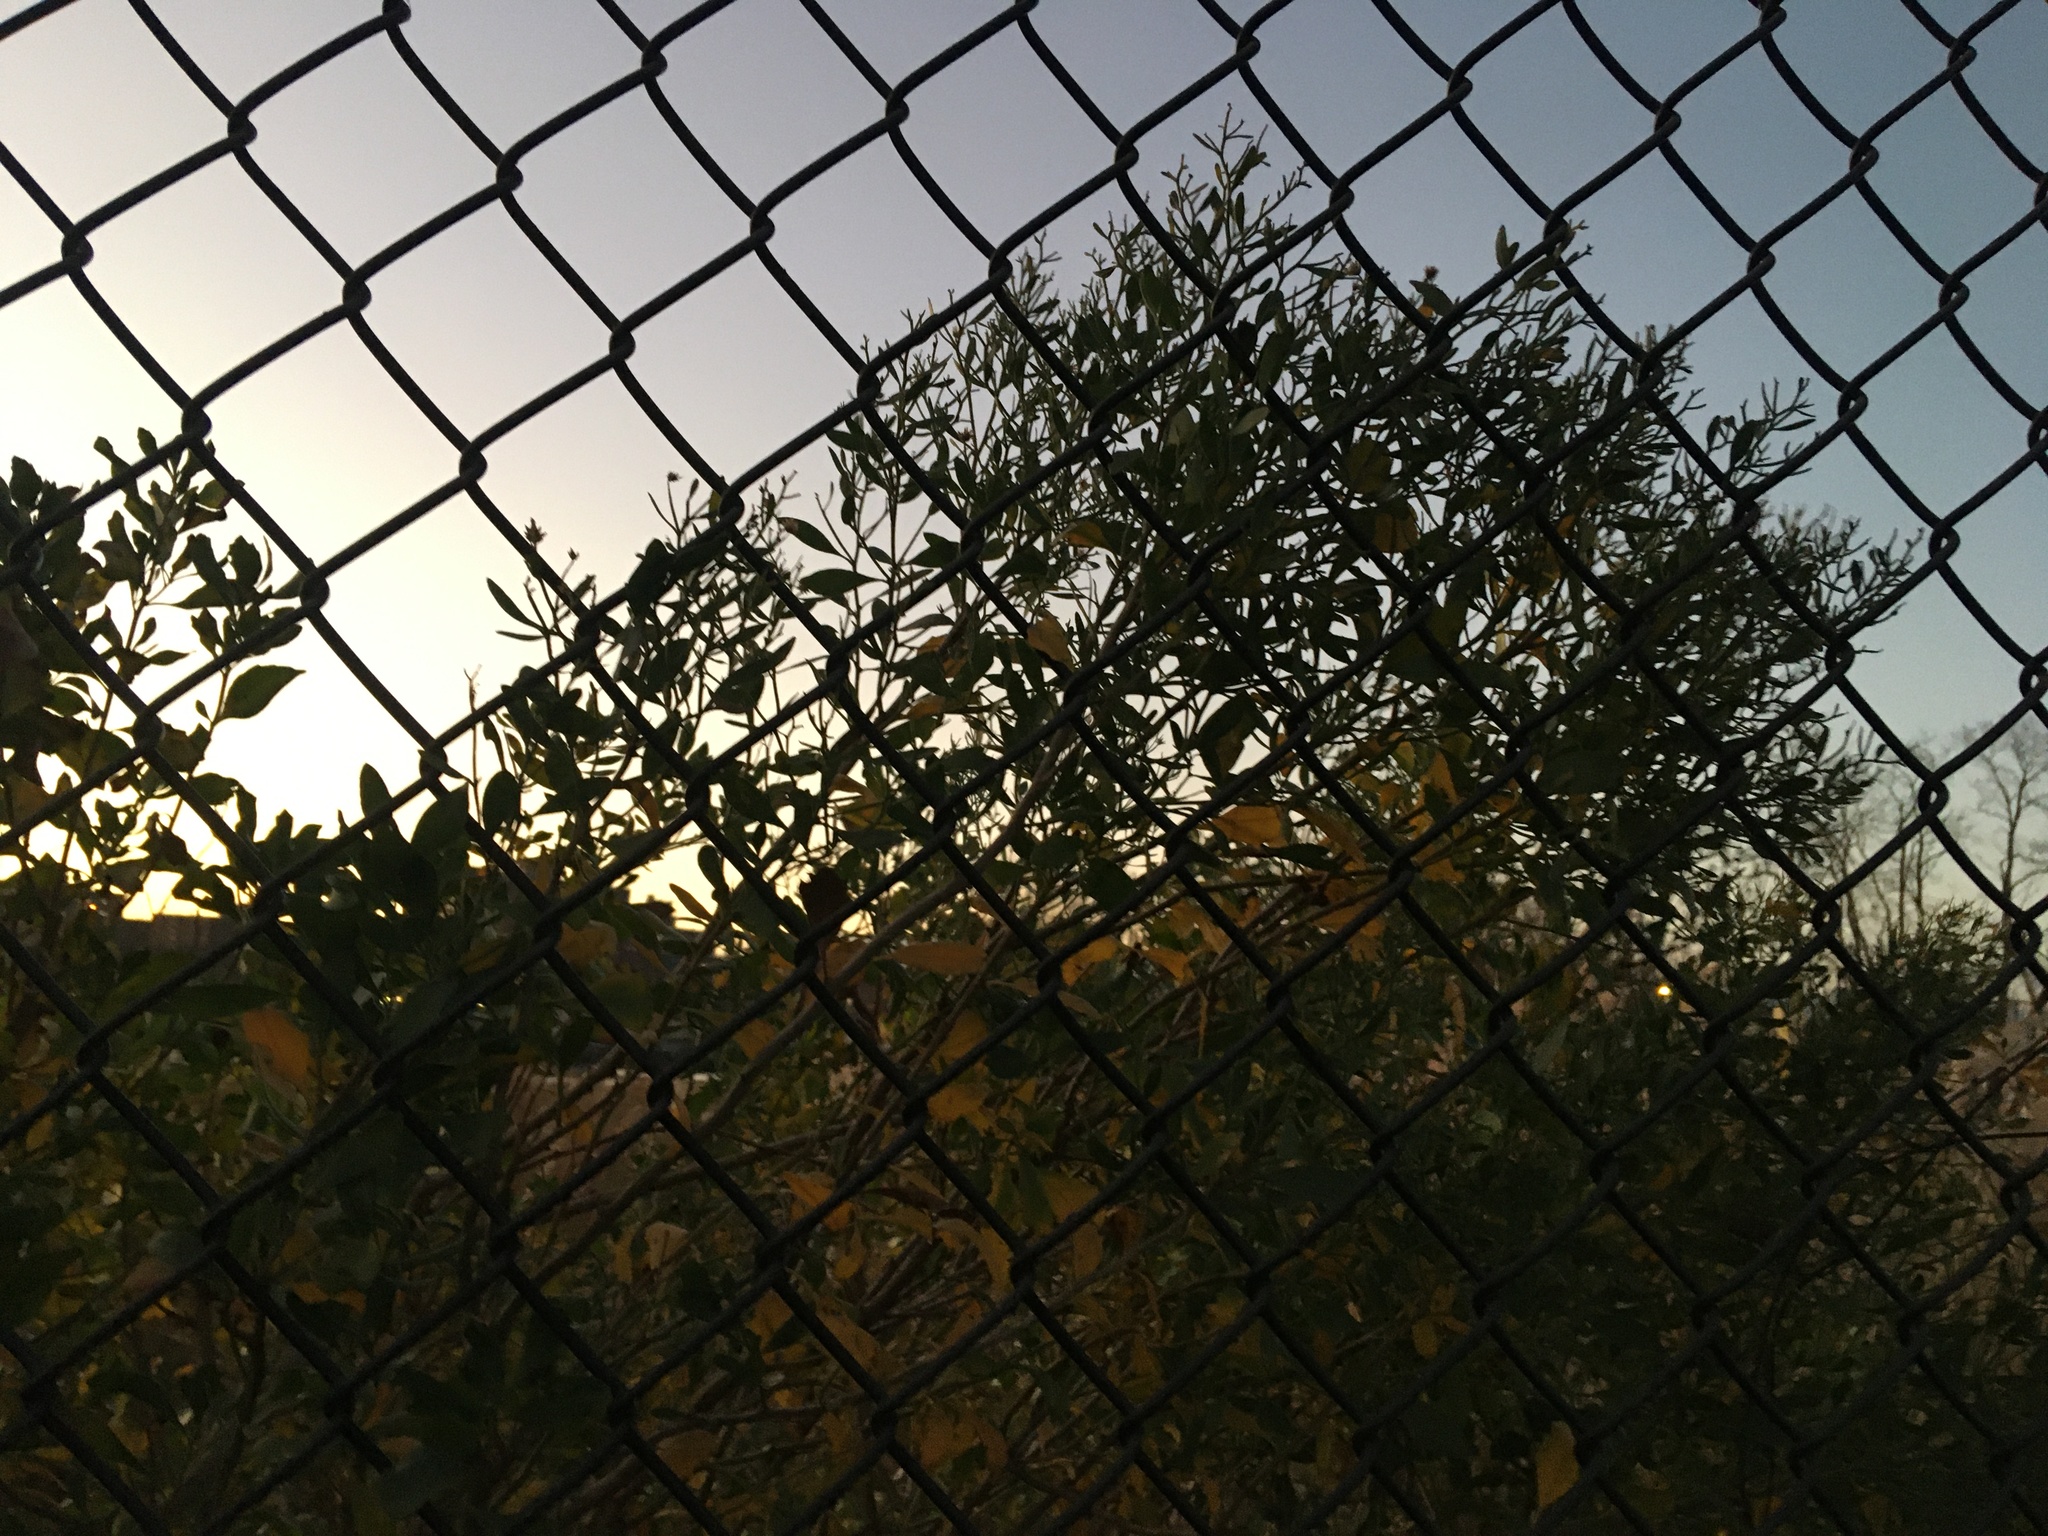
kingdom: Plantae
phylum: Tracheophyta
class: Magnoliopsida
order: Asterales
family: Asteraceae
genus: Baccharis
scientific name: Baccharis halimifolia
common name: Eastern baccharis
